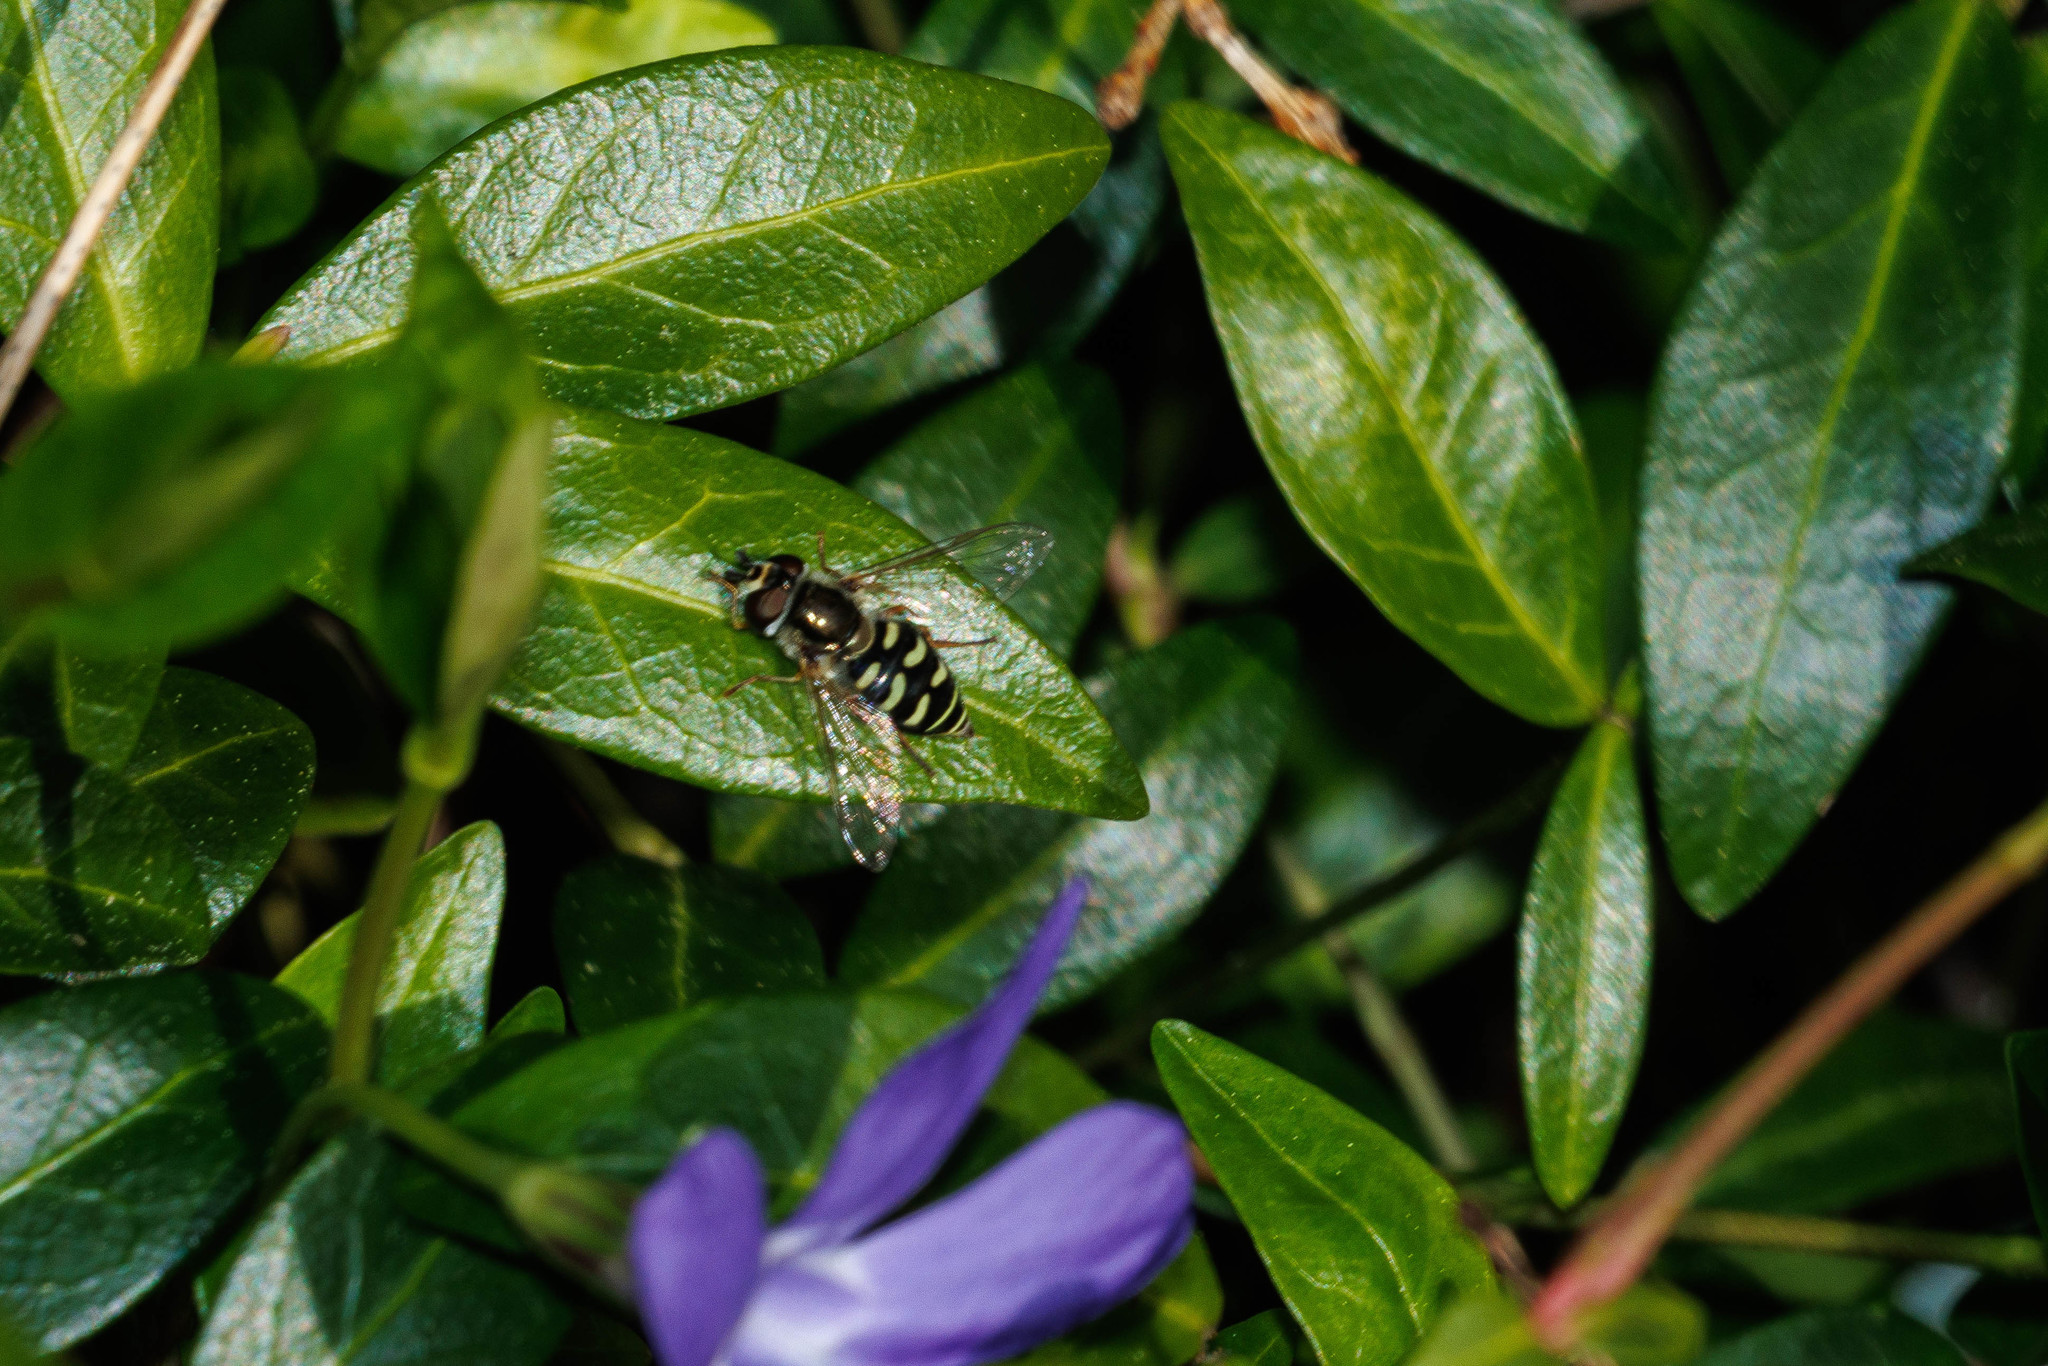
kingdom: Animalia
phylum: Arthropoda
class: Insecta
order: Diptera
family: Syrphidae
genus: Eupeodes
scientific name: Eupeodes volucris
